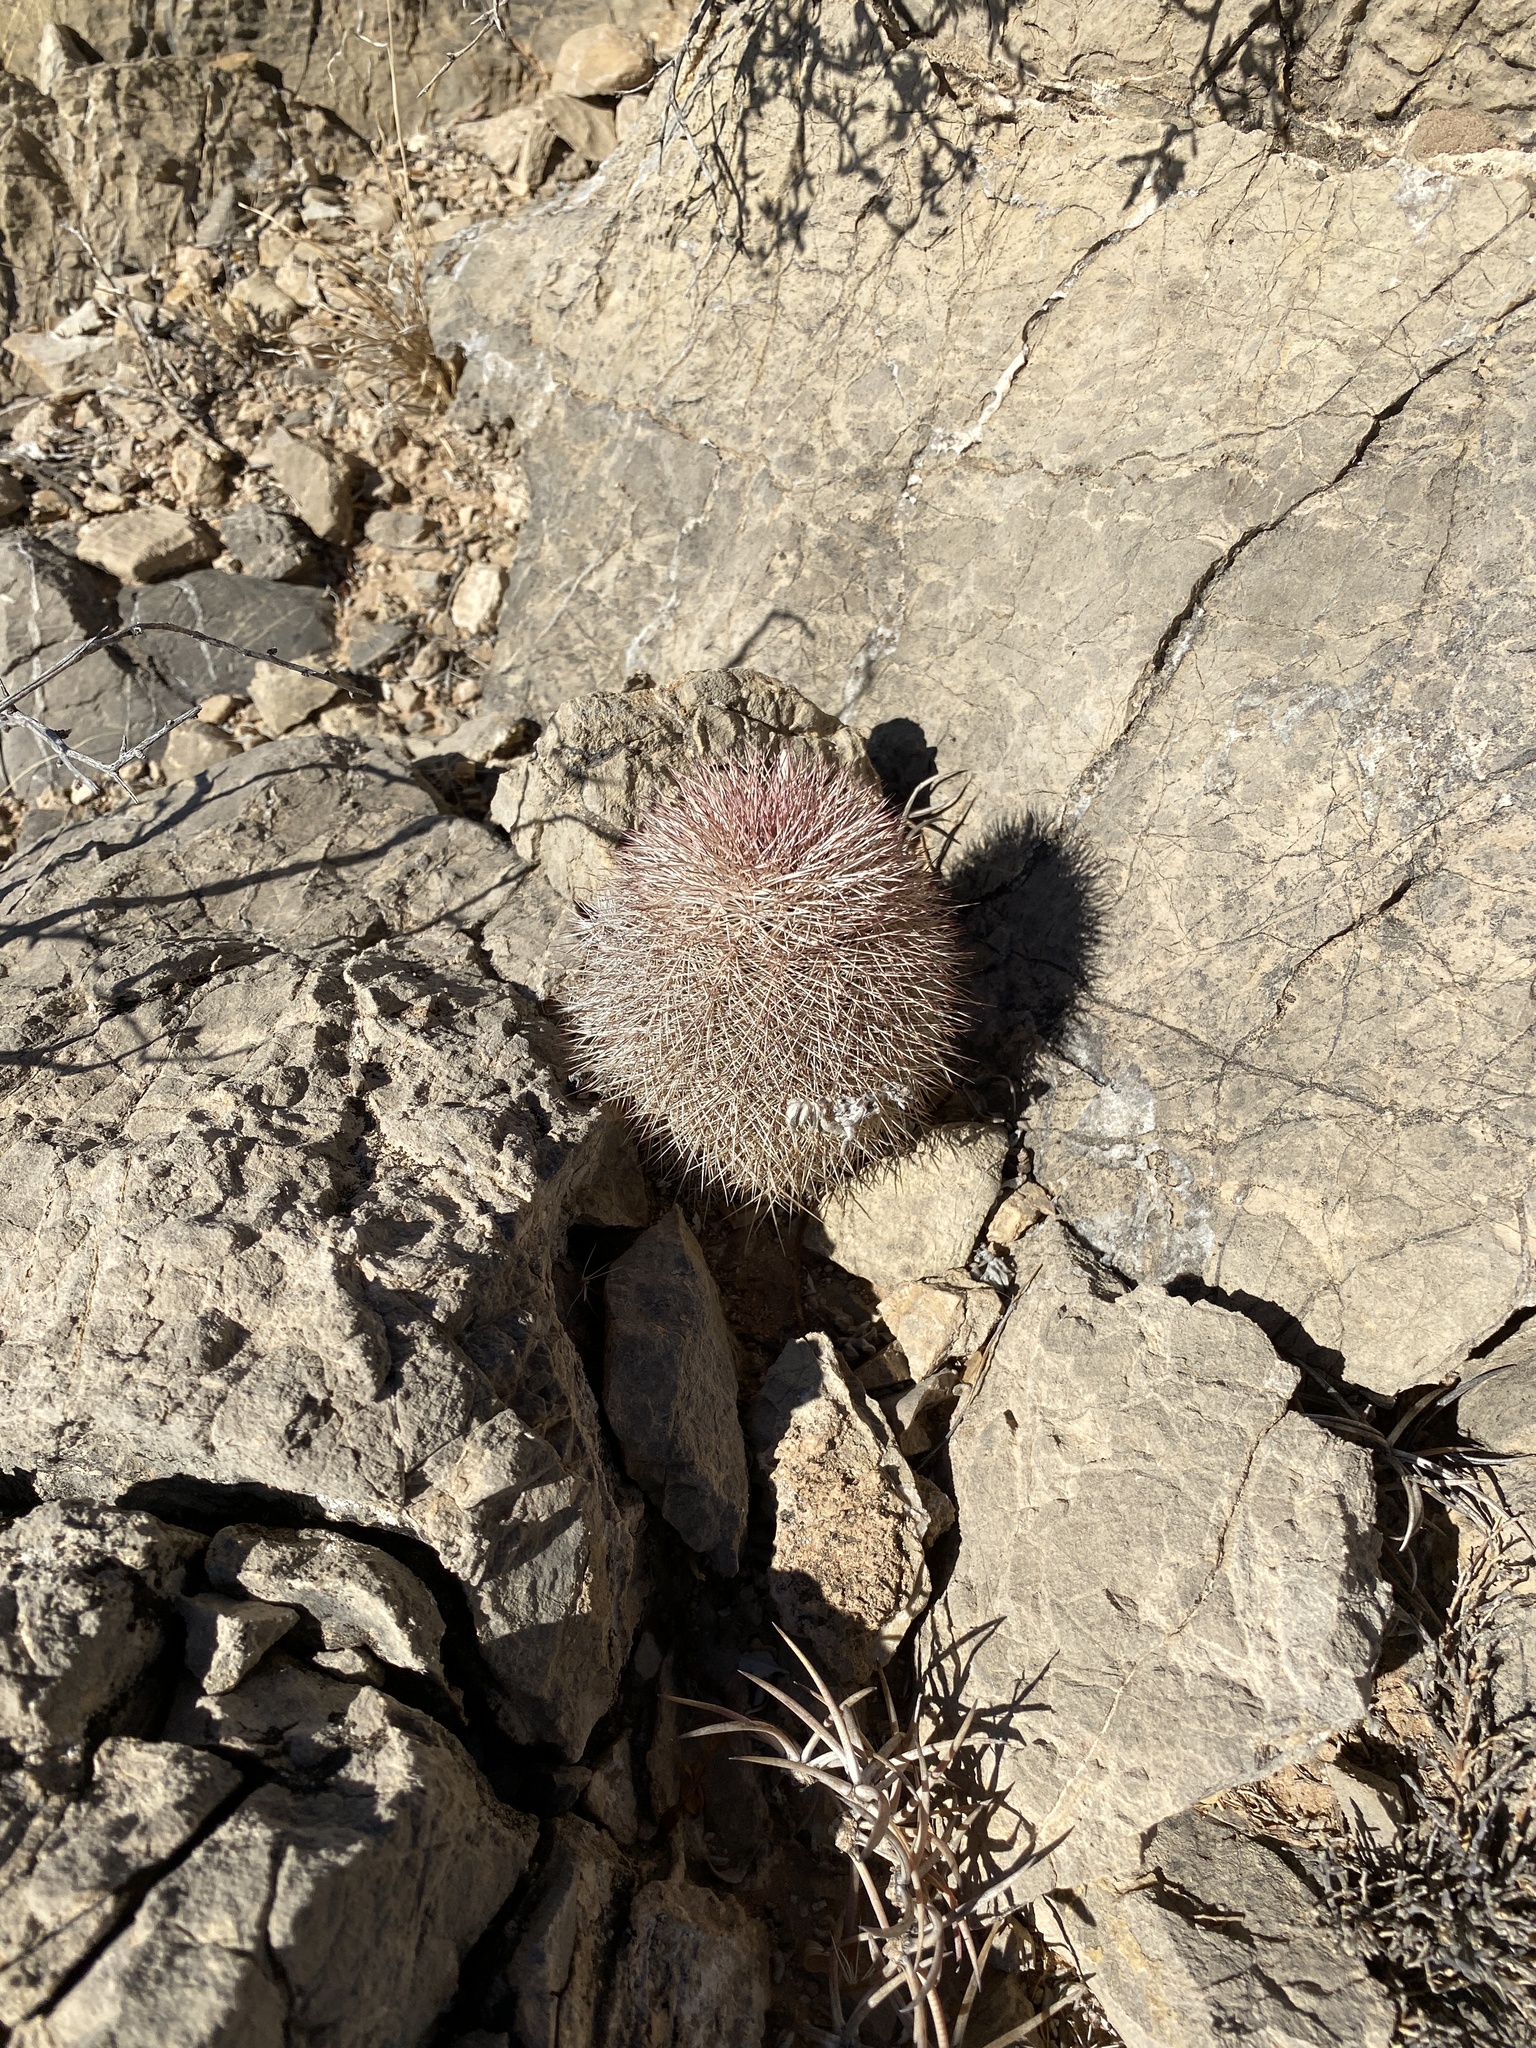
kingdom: Plantae
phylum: Tracheophyta
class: Magnoliopsida
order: Caryophyllales
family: Cactaceae
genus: Echinocereus
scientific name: Echinocereus dasyacanthus
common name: Spiny hedgehog cactus
